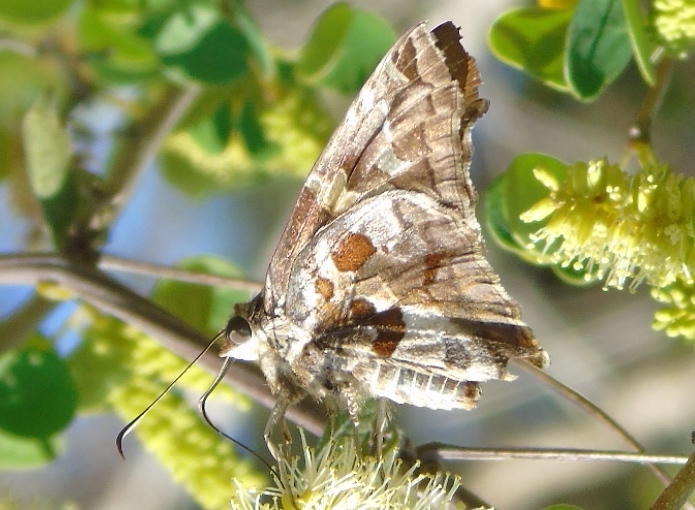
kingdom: Animalia
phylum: Arthropoda
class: Insecta
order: Lepidoptera
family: Hesperiidae
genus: Chioides
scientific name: Chioides zilpa
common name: Zilpa longtail
